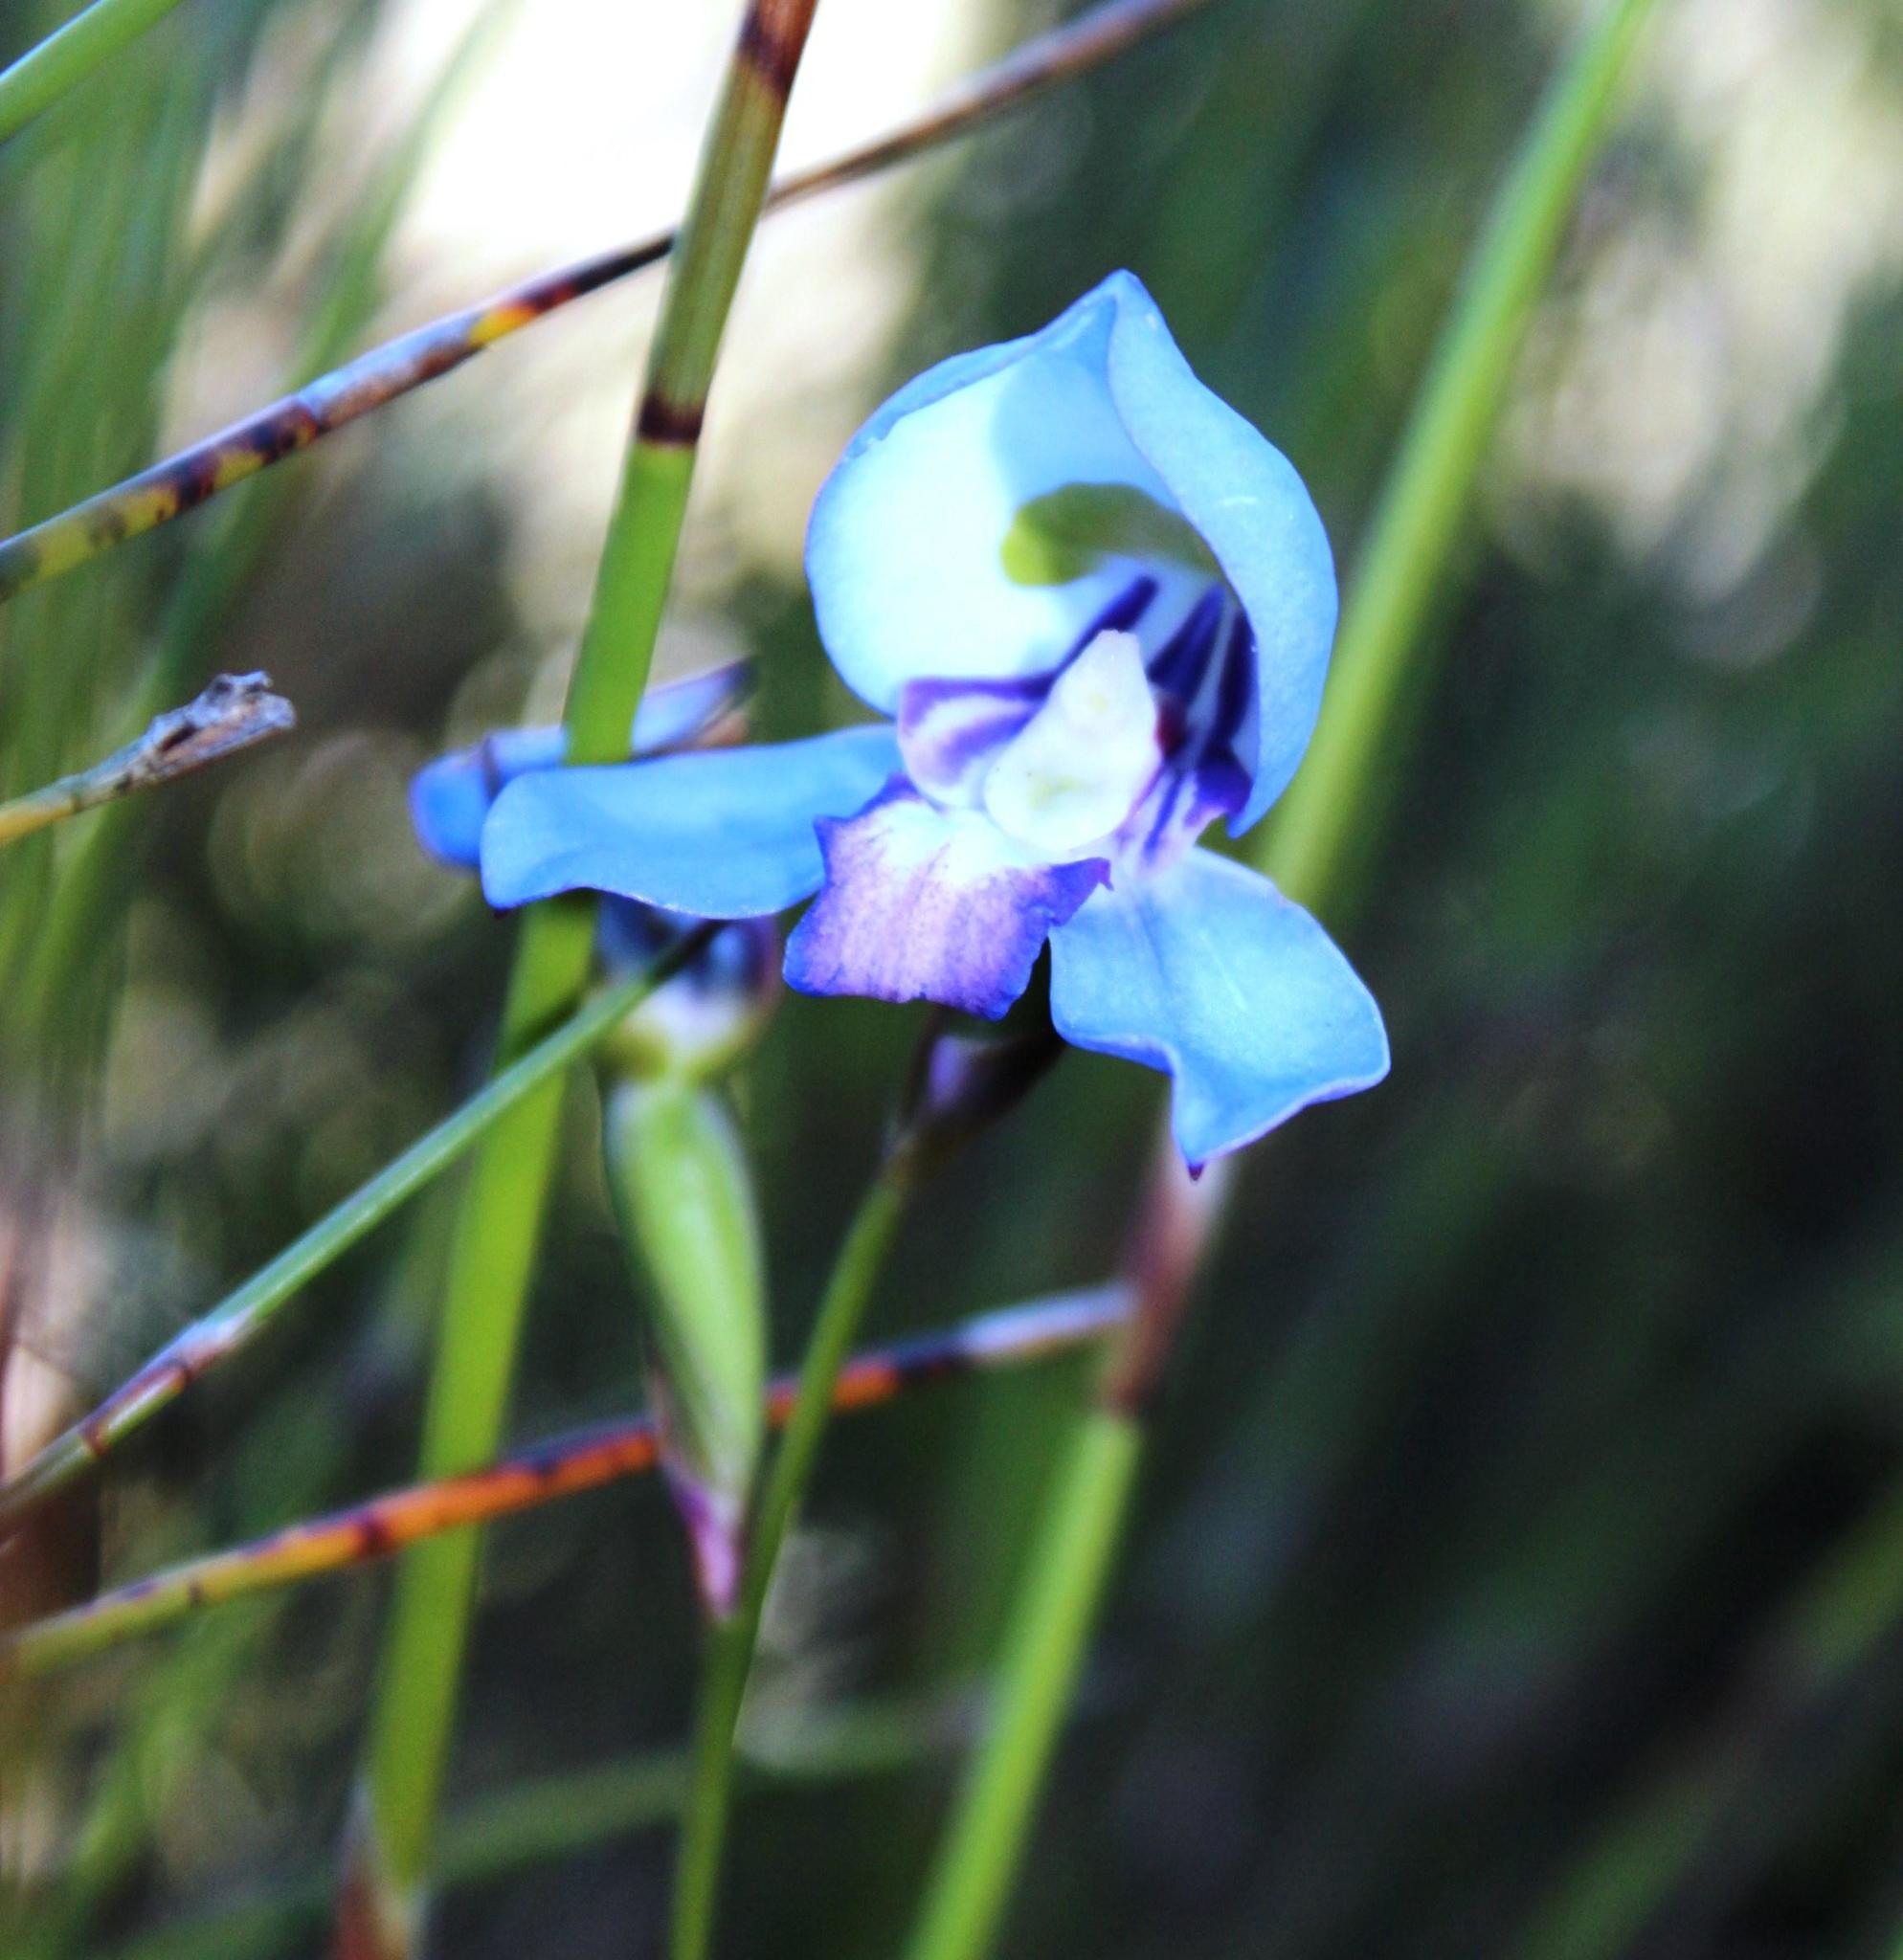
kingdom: Plantae
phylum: Tracheophyta
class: Liliopsida
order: Asparagales
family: Orchidaceae
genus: Disa
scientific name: Disa graminifolia
